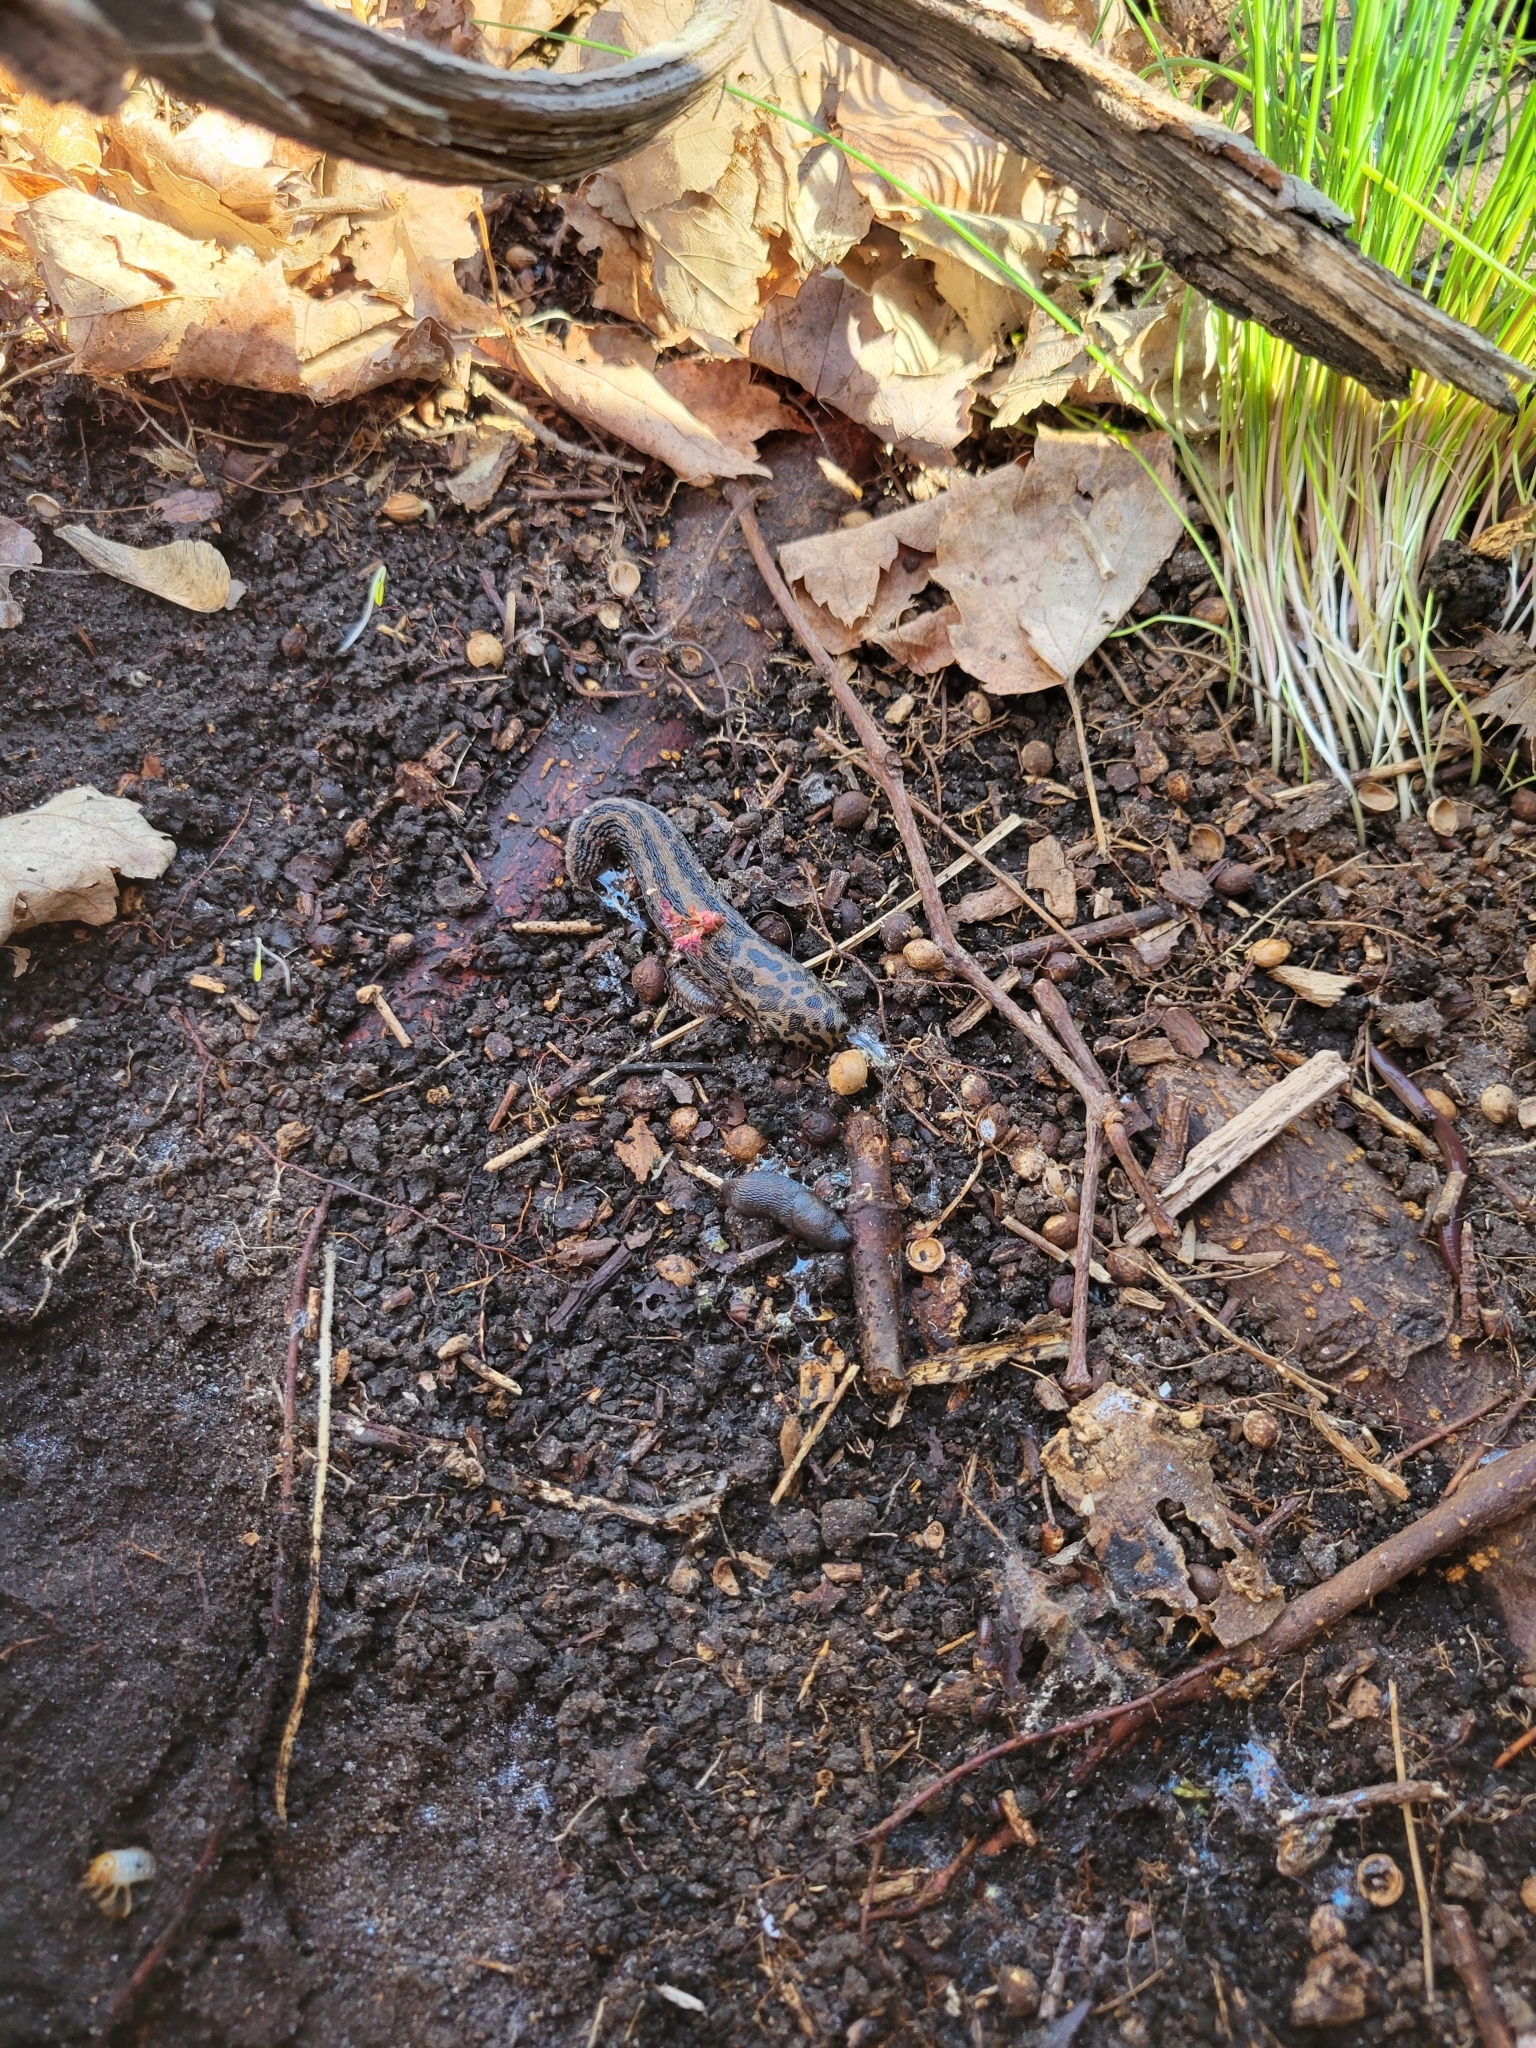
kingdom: Animalia
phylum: Mollusca
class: Gastropoda
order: Stylommatophora
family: Limacidae
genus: Limax
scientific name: Limax maximus
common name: Great grey slug
